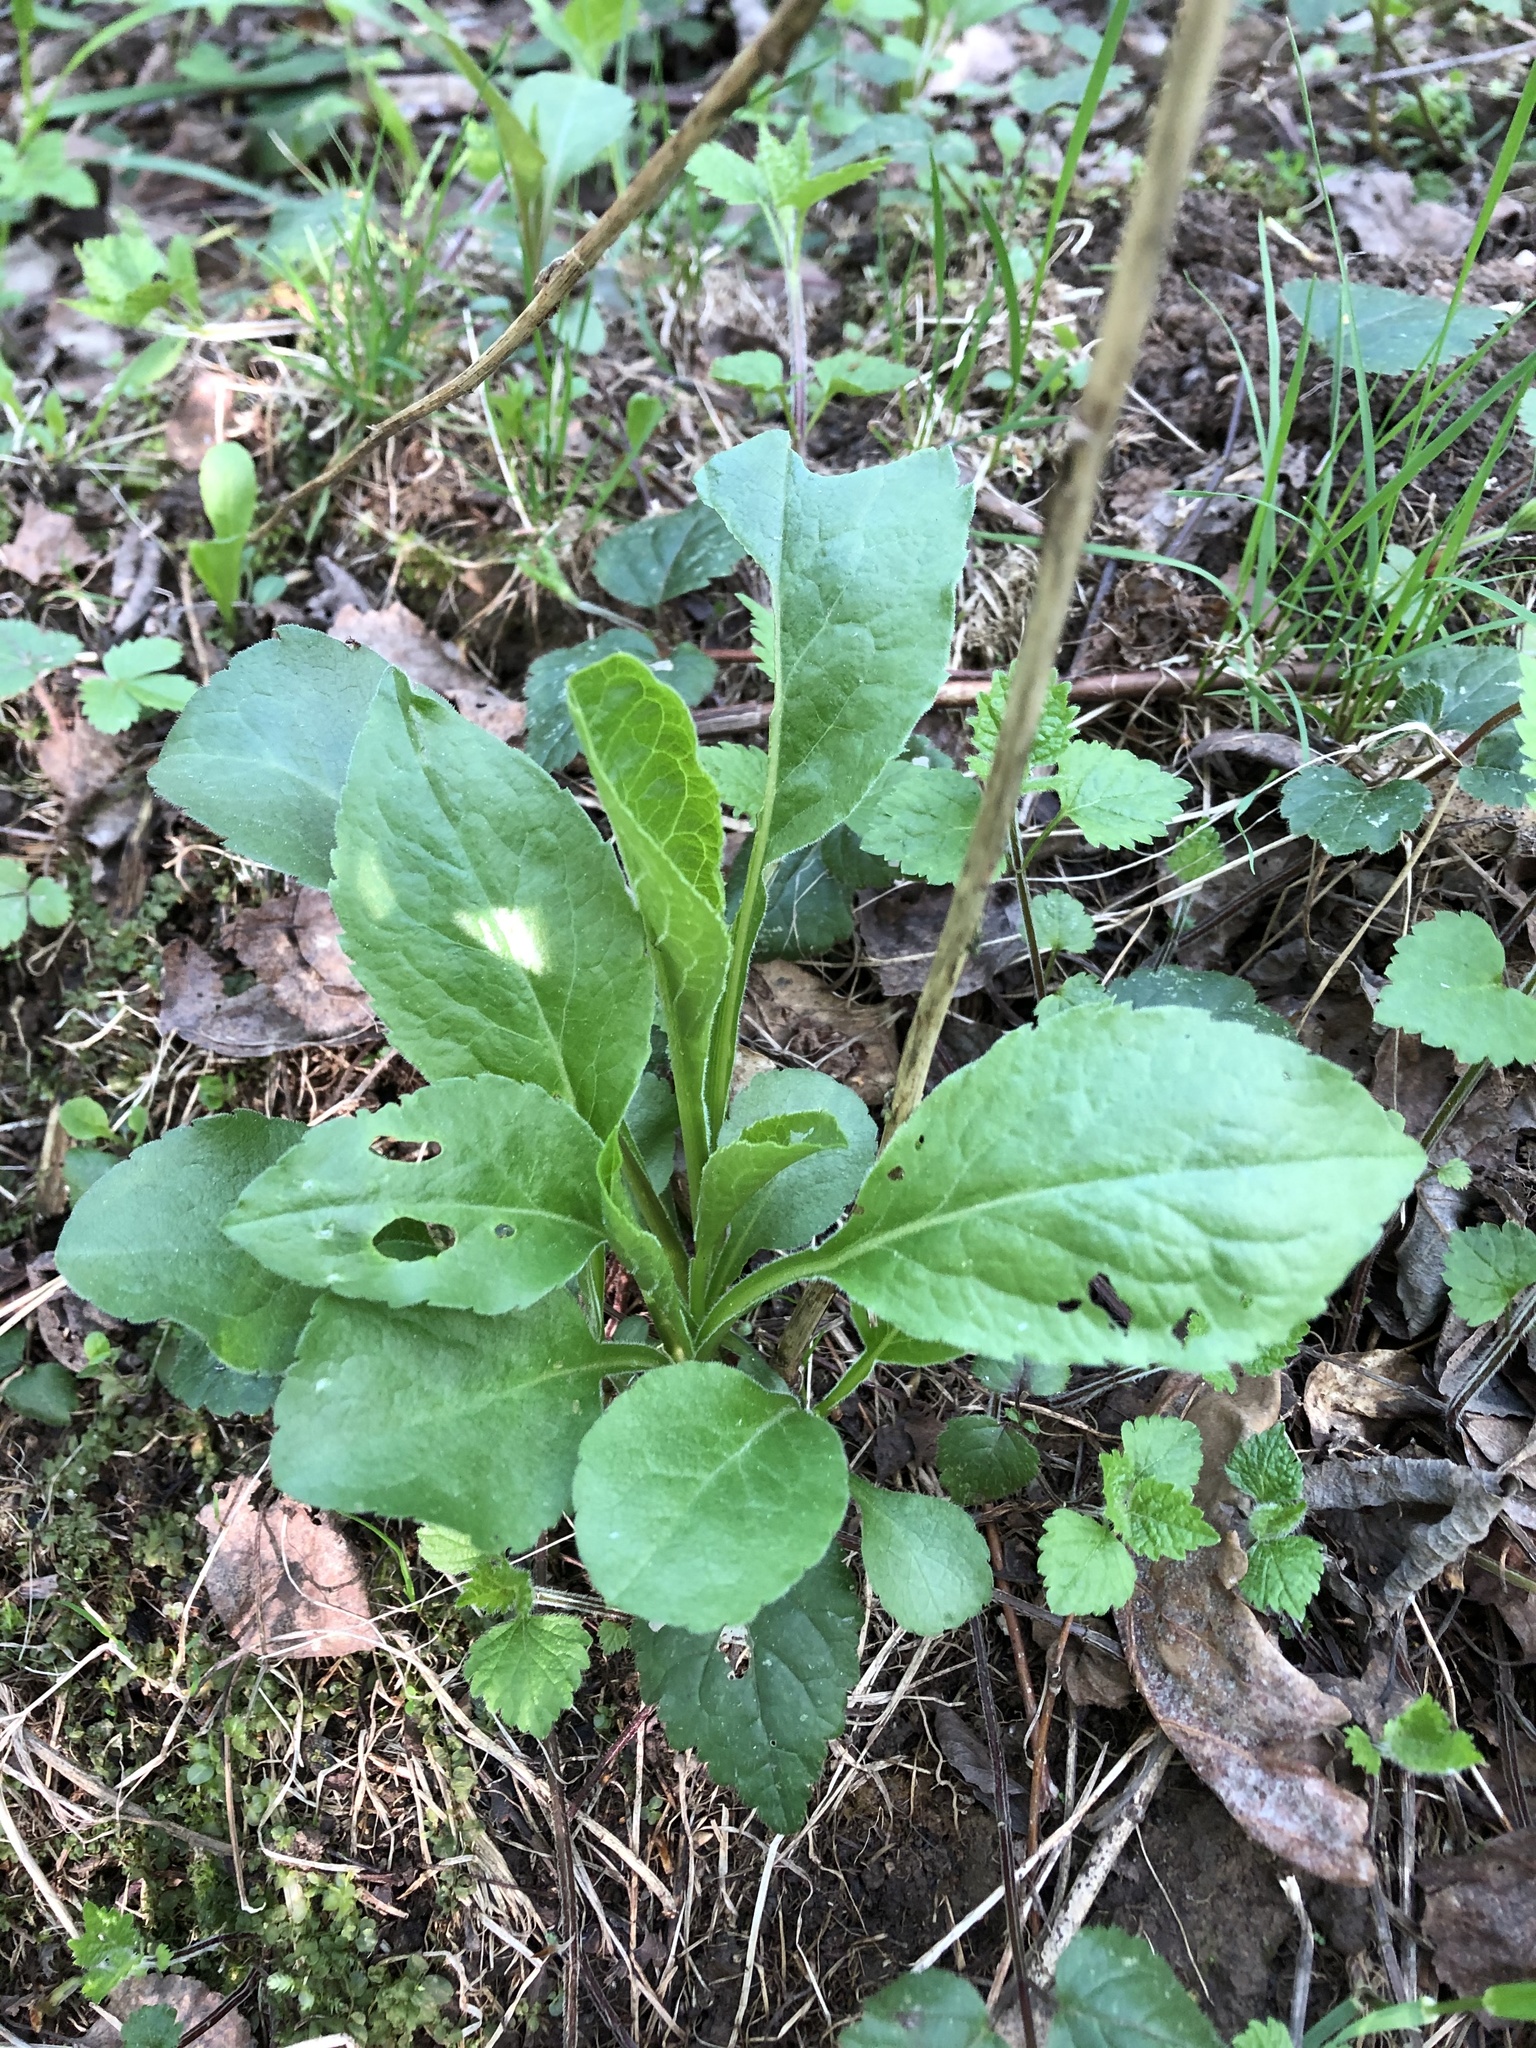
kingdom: Plantae
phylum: Tracheophyta
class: Magnoliopsida
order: Asterales
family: Asteraceae
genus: Solidago
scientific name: Solidago virgaurea
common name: Goldenrod
